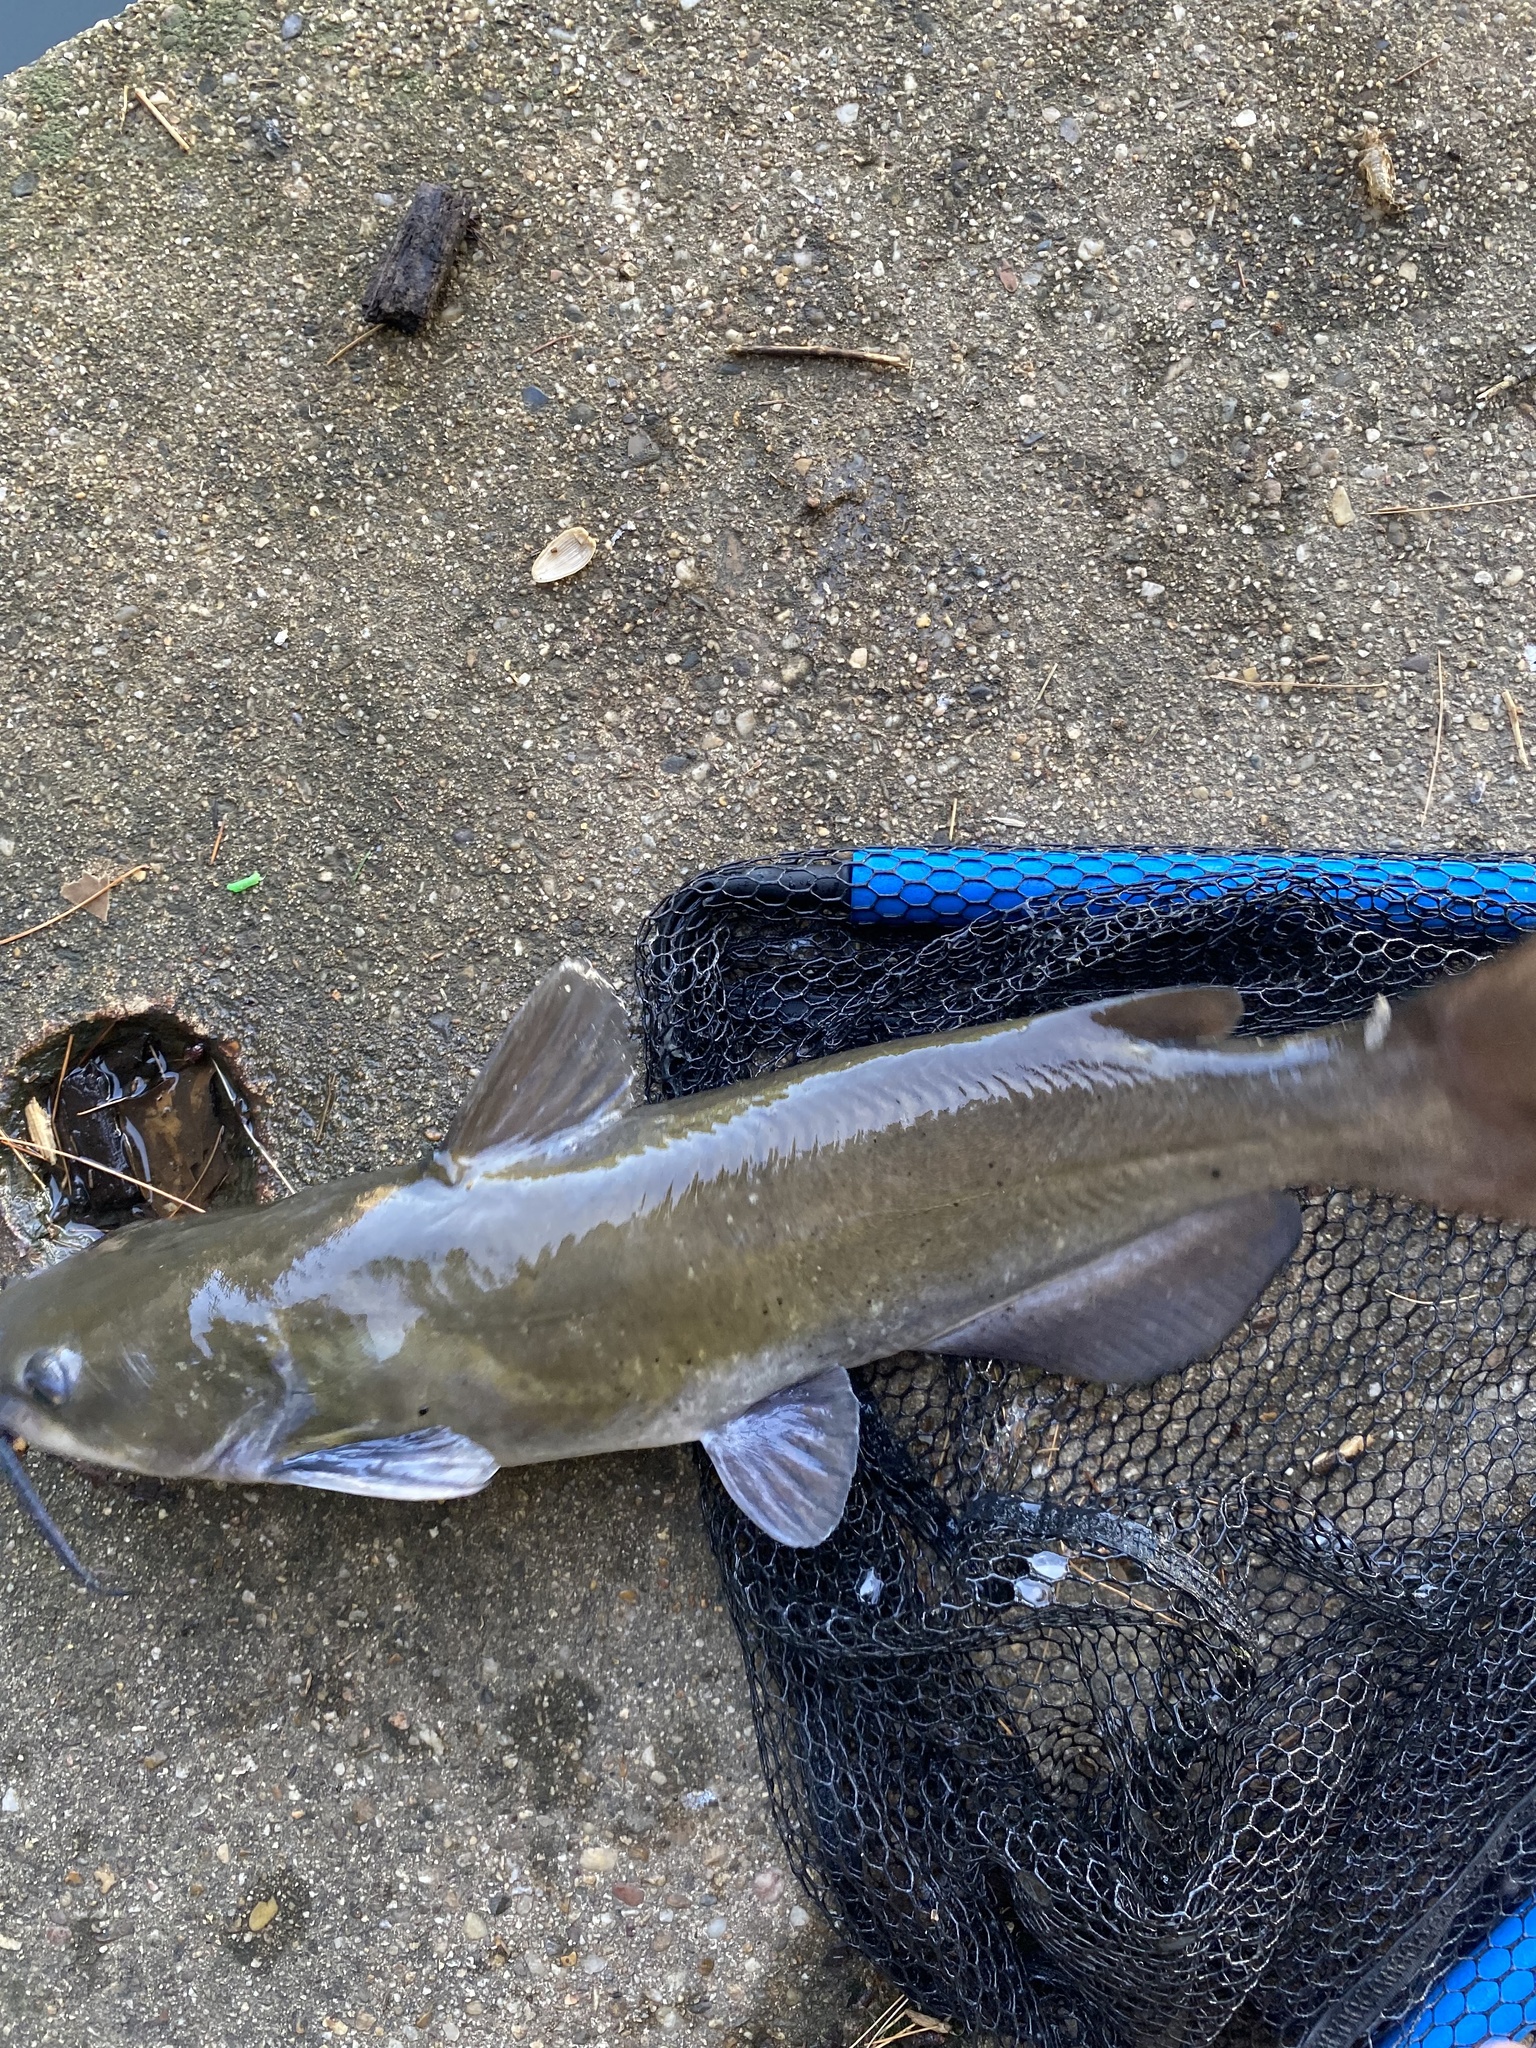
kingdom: Animalia
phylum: Chordata
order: Siluriformes
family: Ictaluridae
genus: Ictalurus
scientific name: Ictalurus punctatus
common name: Channel catfish
